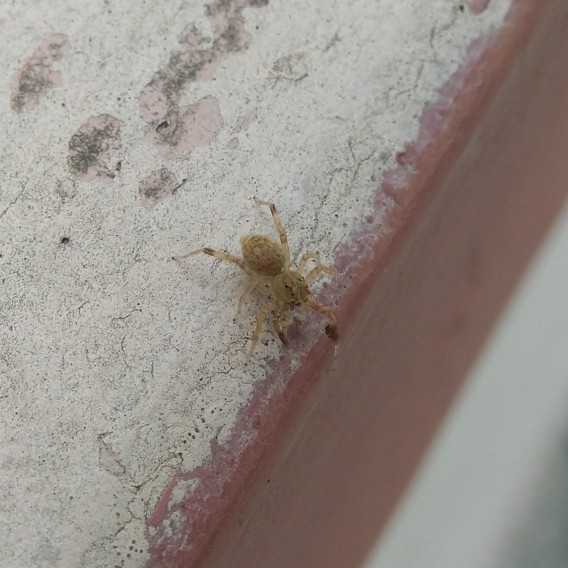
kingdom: Animalia
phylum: Arthropoda
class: Arachnida
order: Araneae
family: Salticidae
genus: Brettus
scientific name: Brettus cingulatus
